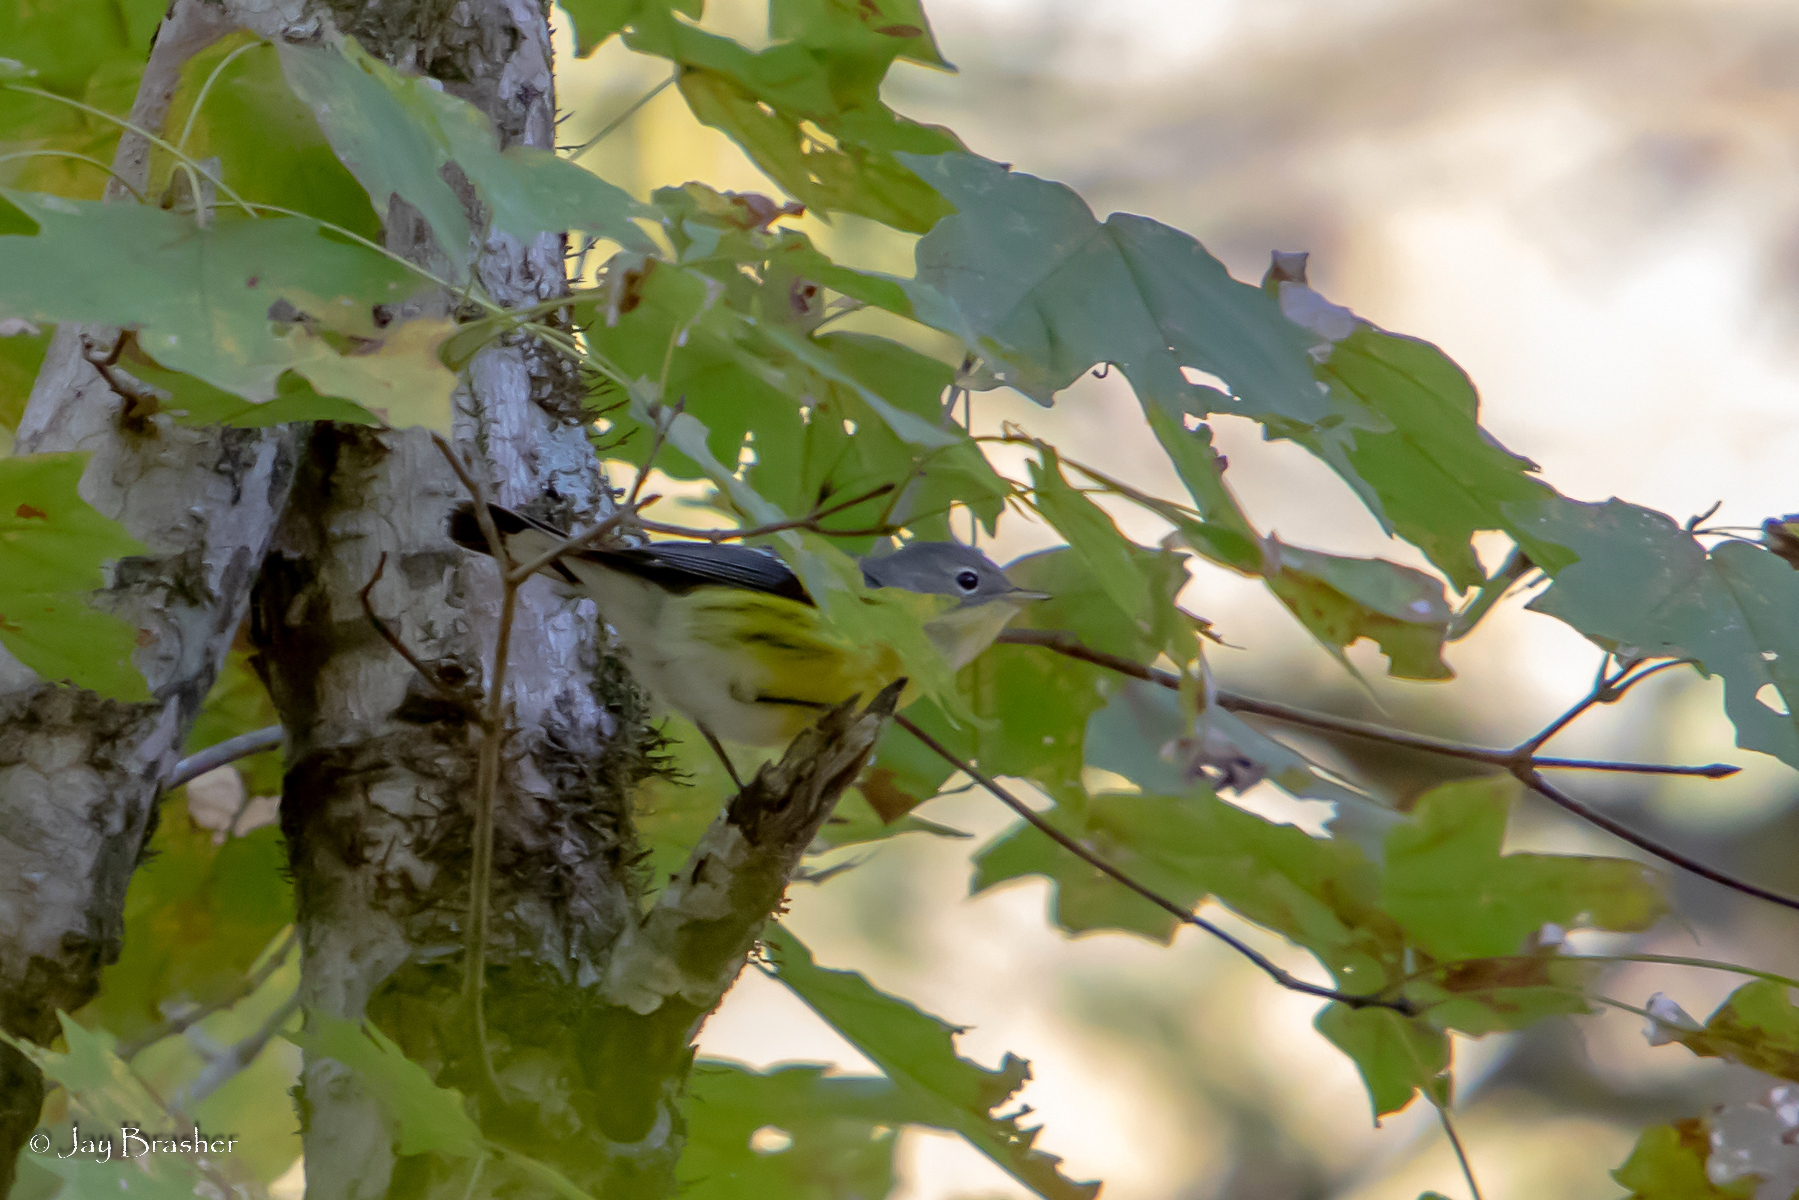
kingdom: Animalia
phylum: Chordata
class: Aves
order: Passeriformes
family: Parulidae
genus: Setophaga
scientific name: Setophaga magnolia
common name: Magnolia warbler
